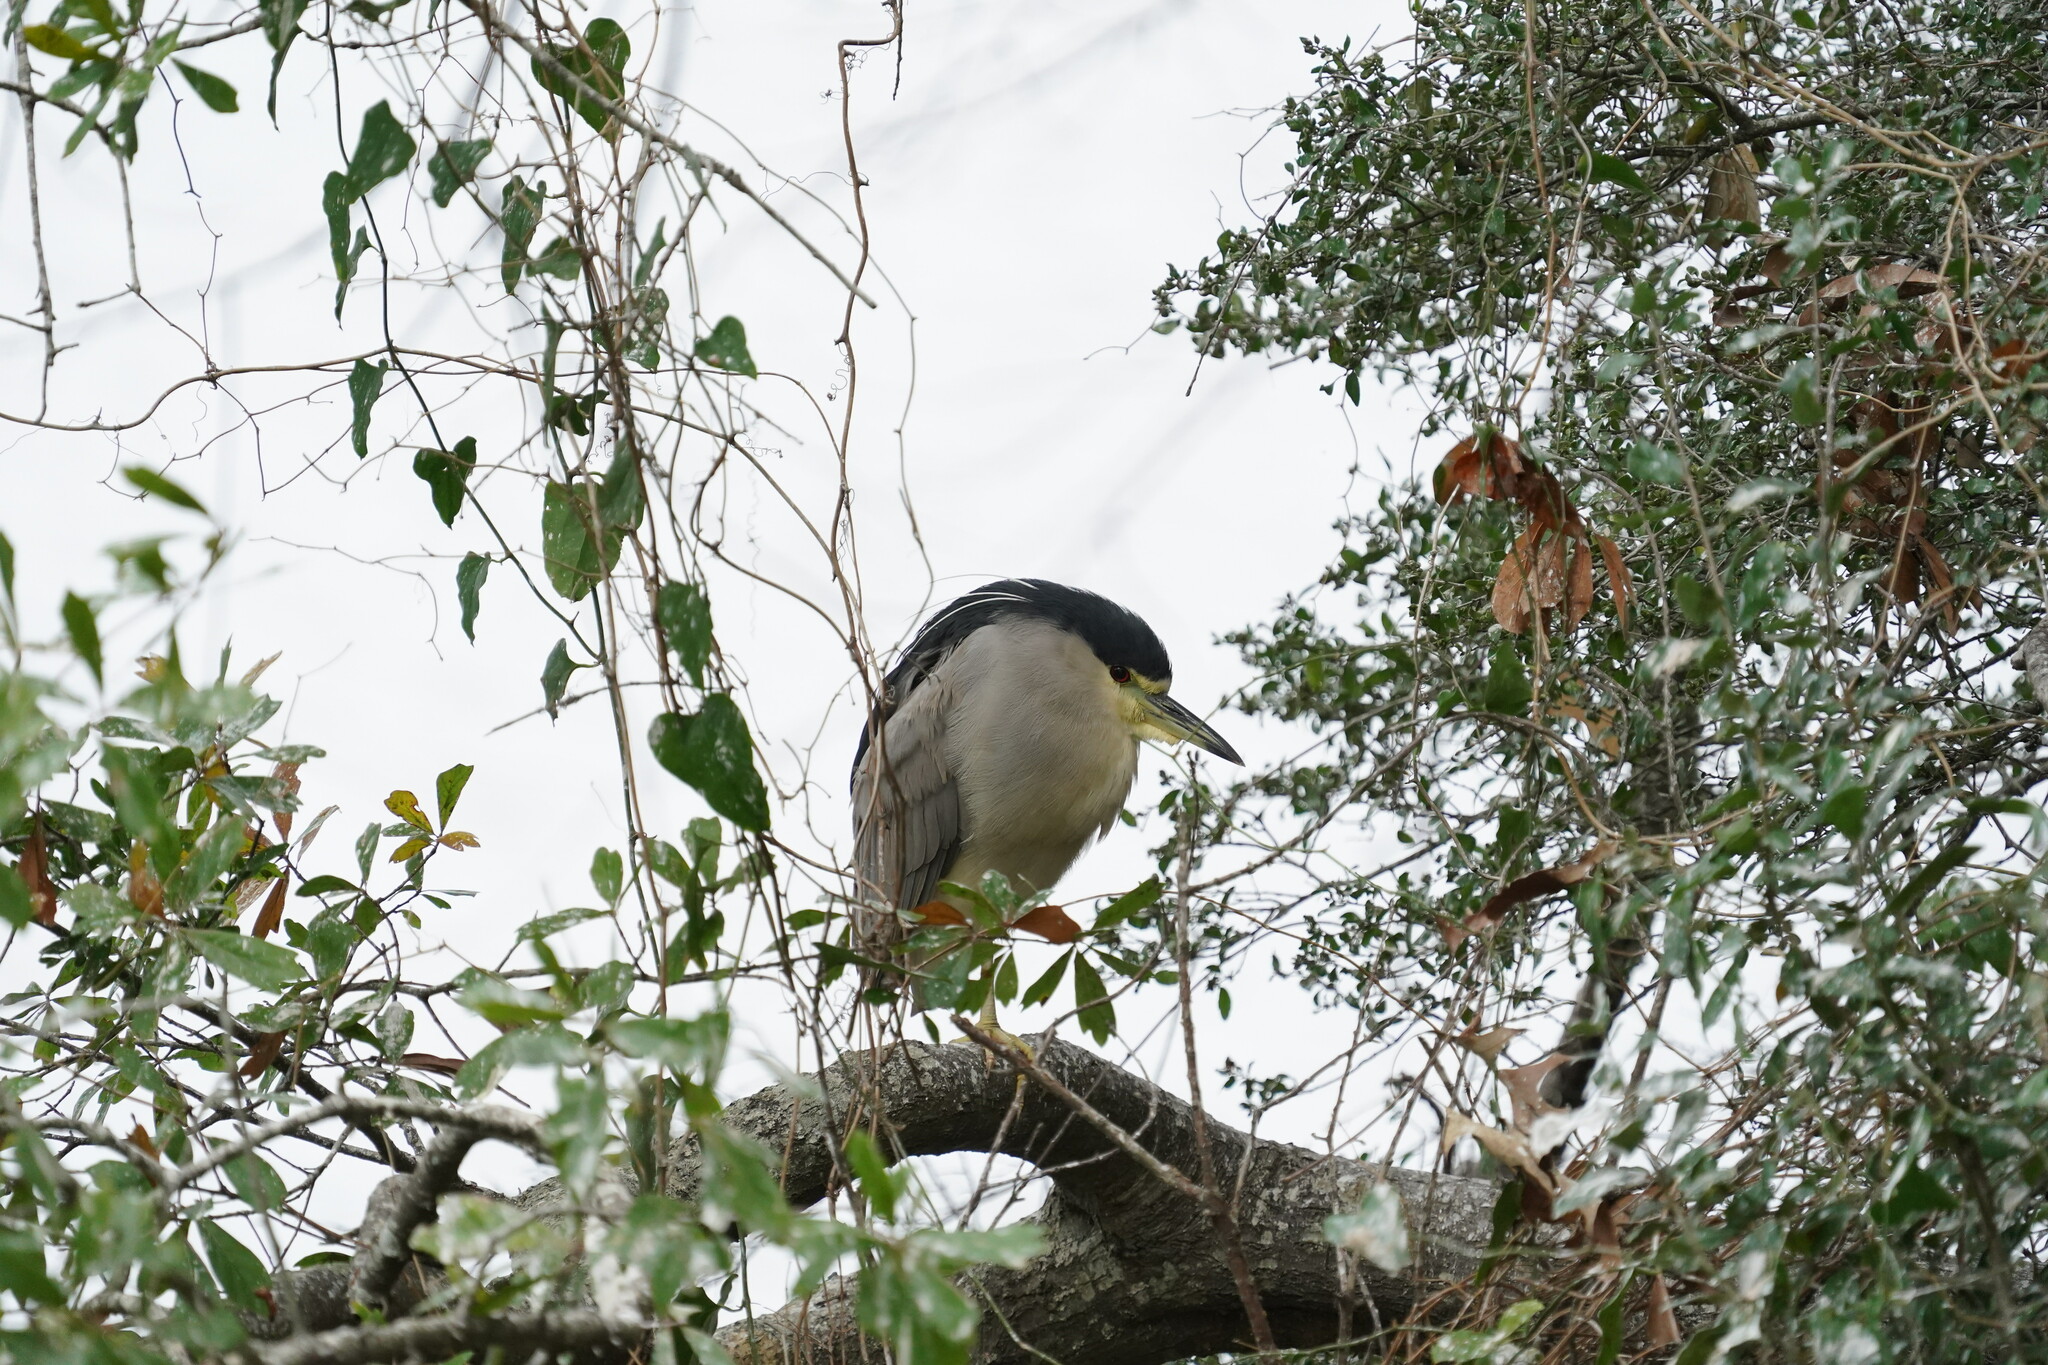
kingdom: Animalia
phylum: Chordata
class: Aves
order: Pelecaniformes
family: Ardeidae
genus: Nycticorax
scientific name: Nycticorax nycticorax
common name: Black-crowned night heron
